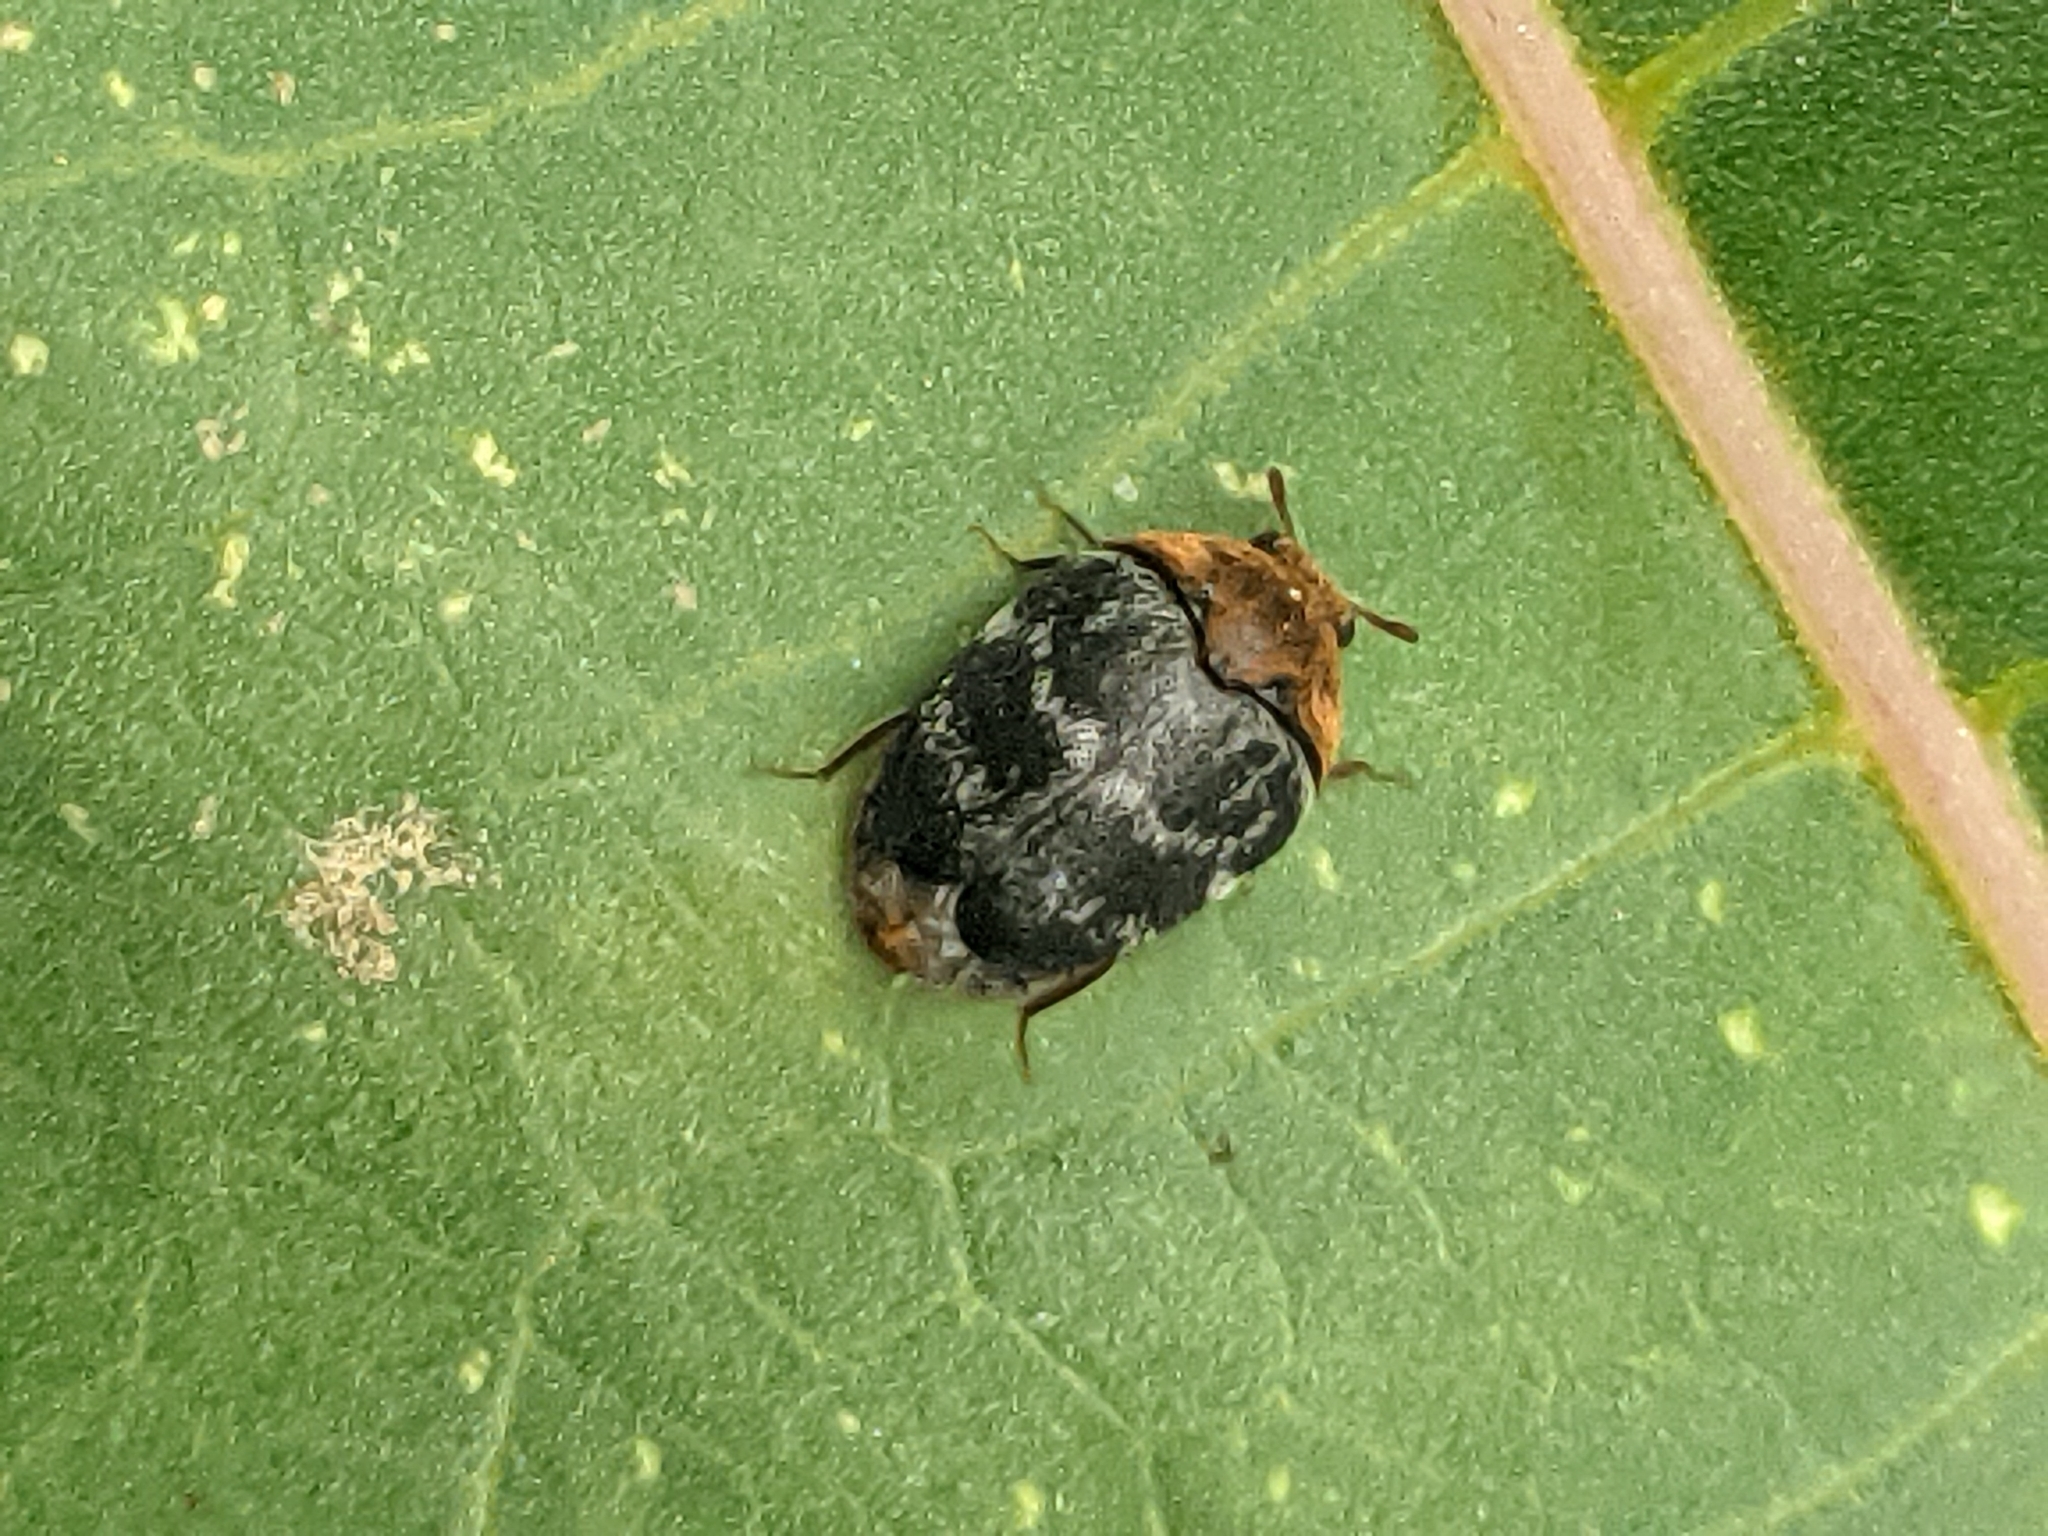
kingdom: Animalia
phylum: Arthropoda
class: Insecta
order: Coleoptera
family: Dermestidae
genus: Thaumaglossa
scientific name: Thaumaglossa rufocapillata
